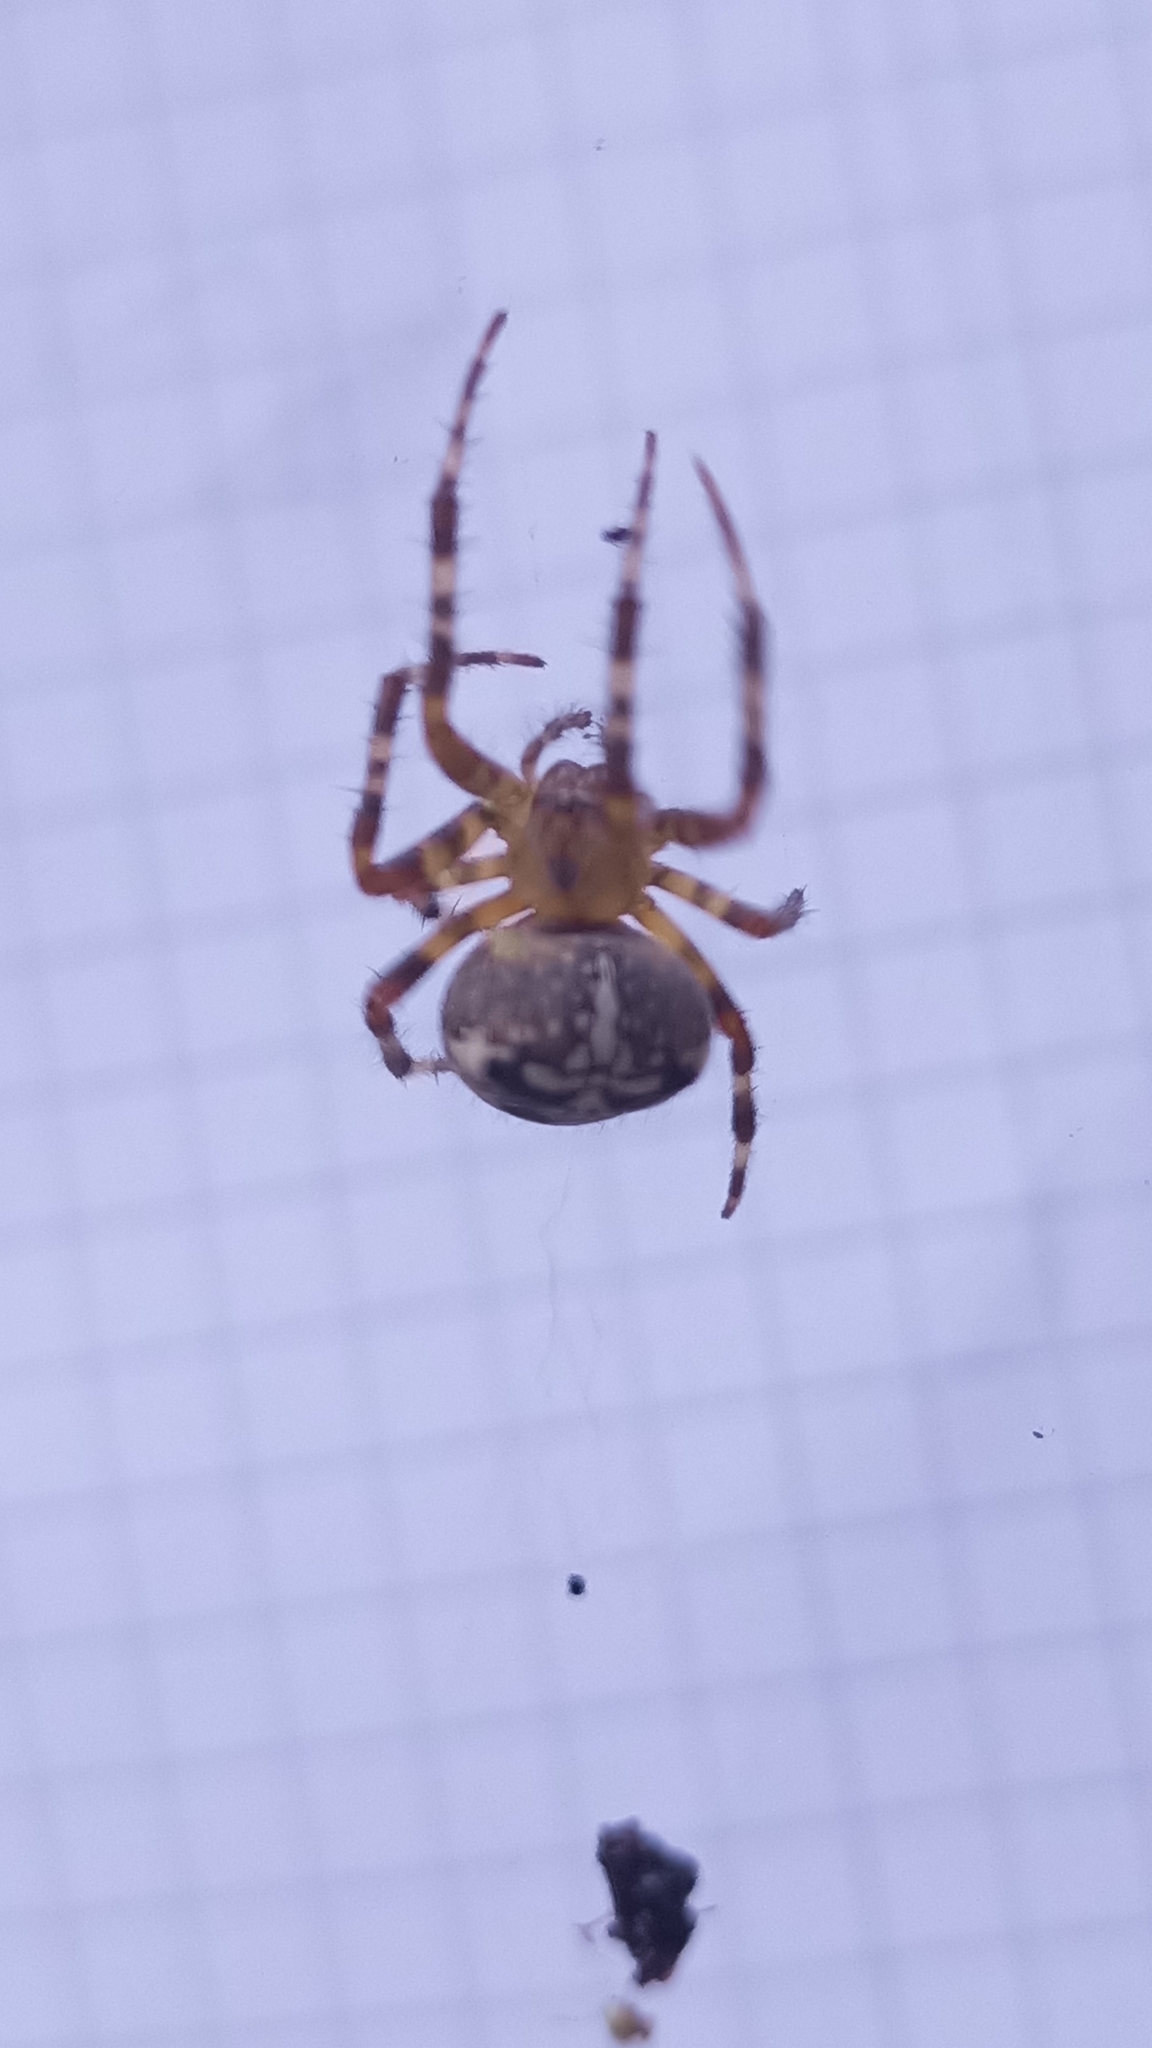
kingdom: Animalia
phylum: Arthropoda
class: Arachnida
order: Araneae
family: Araneidae
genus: Araneus
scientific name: Araneus diadematus
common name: Cross orbweaver
